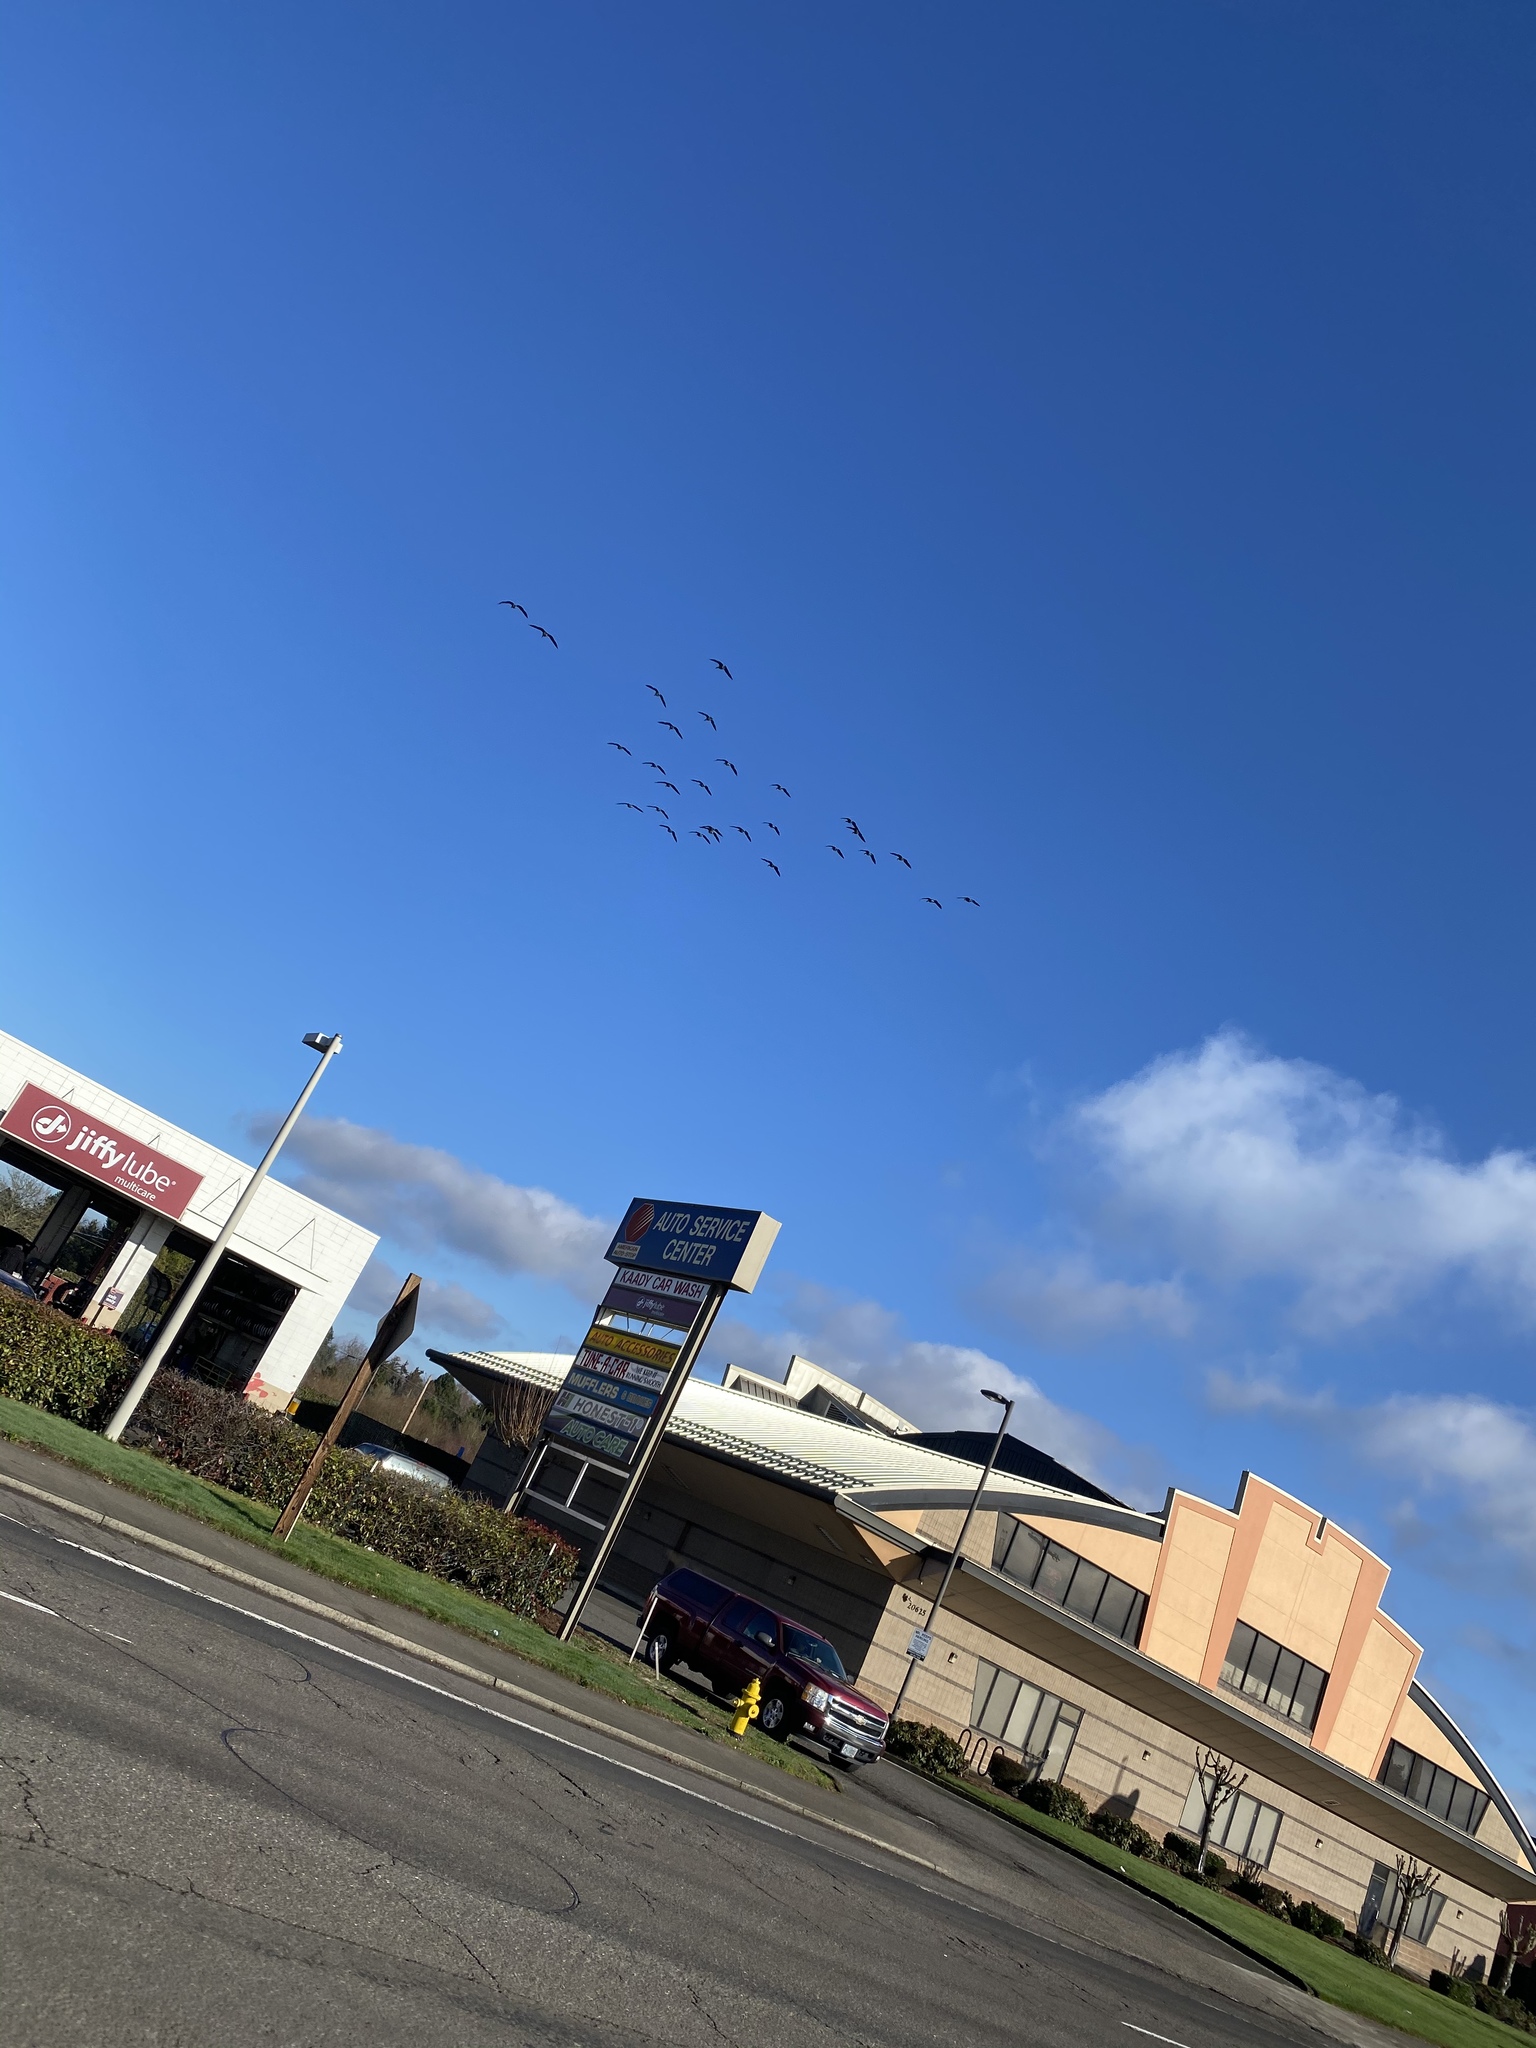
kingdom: Animalia
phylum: Chordata
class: Aves
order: Anseriformes
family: Anatidae
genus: Branta
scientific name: Branta canadensis
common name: Canada goose
